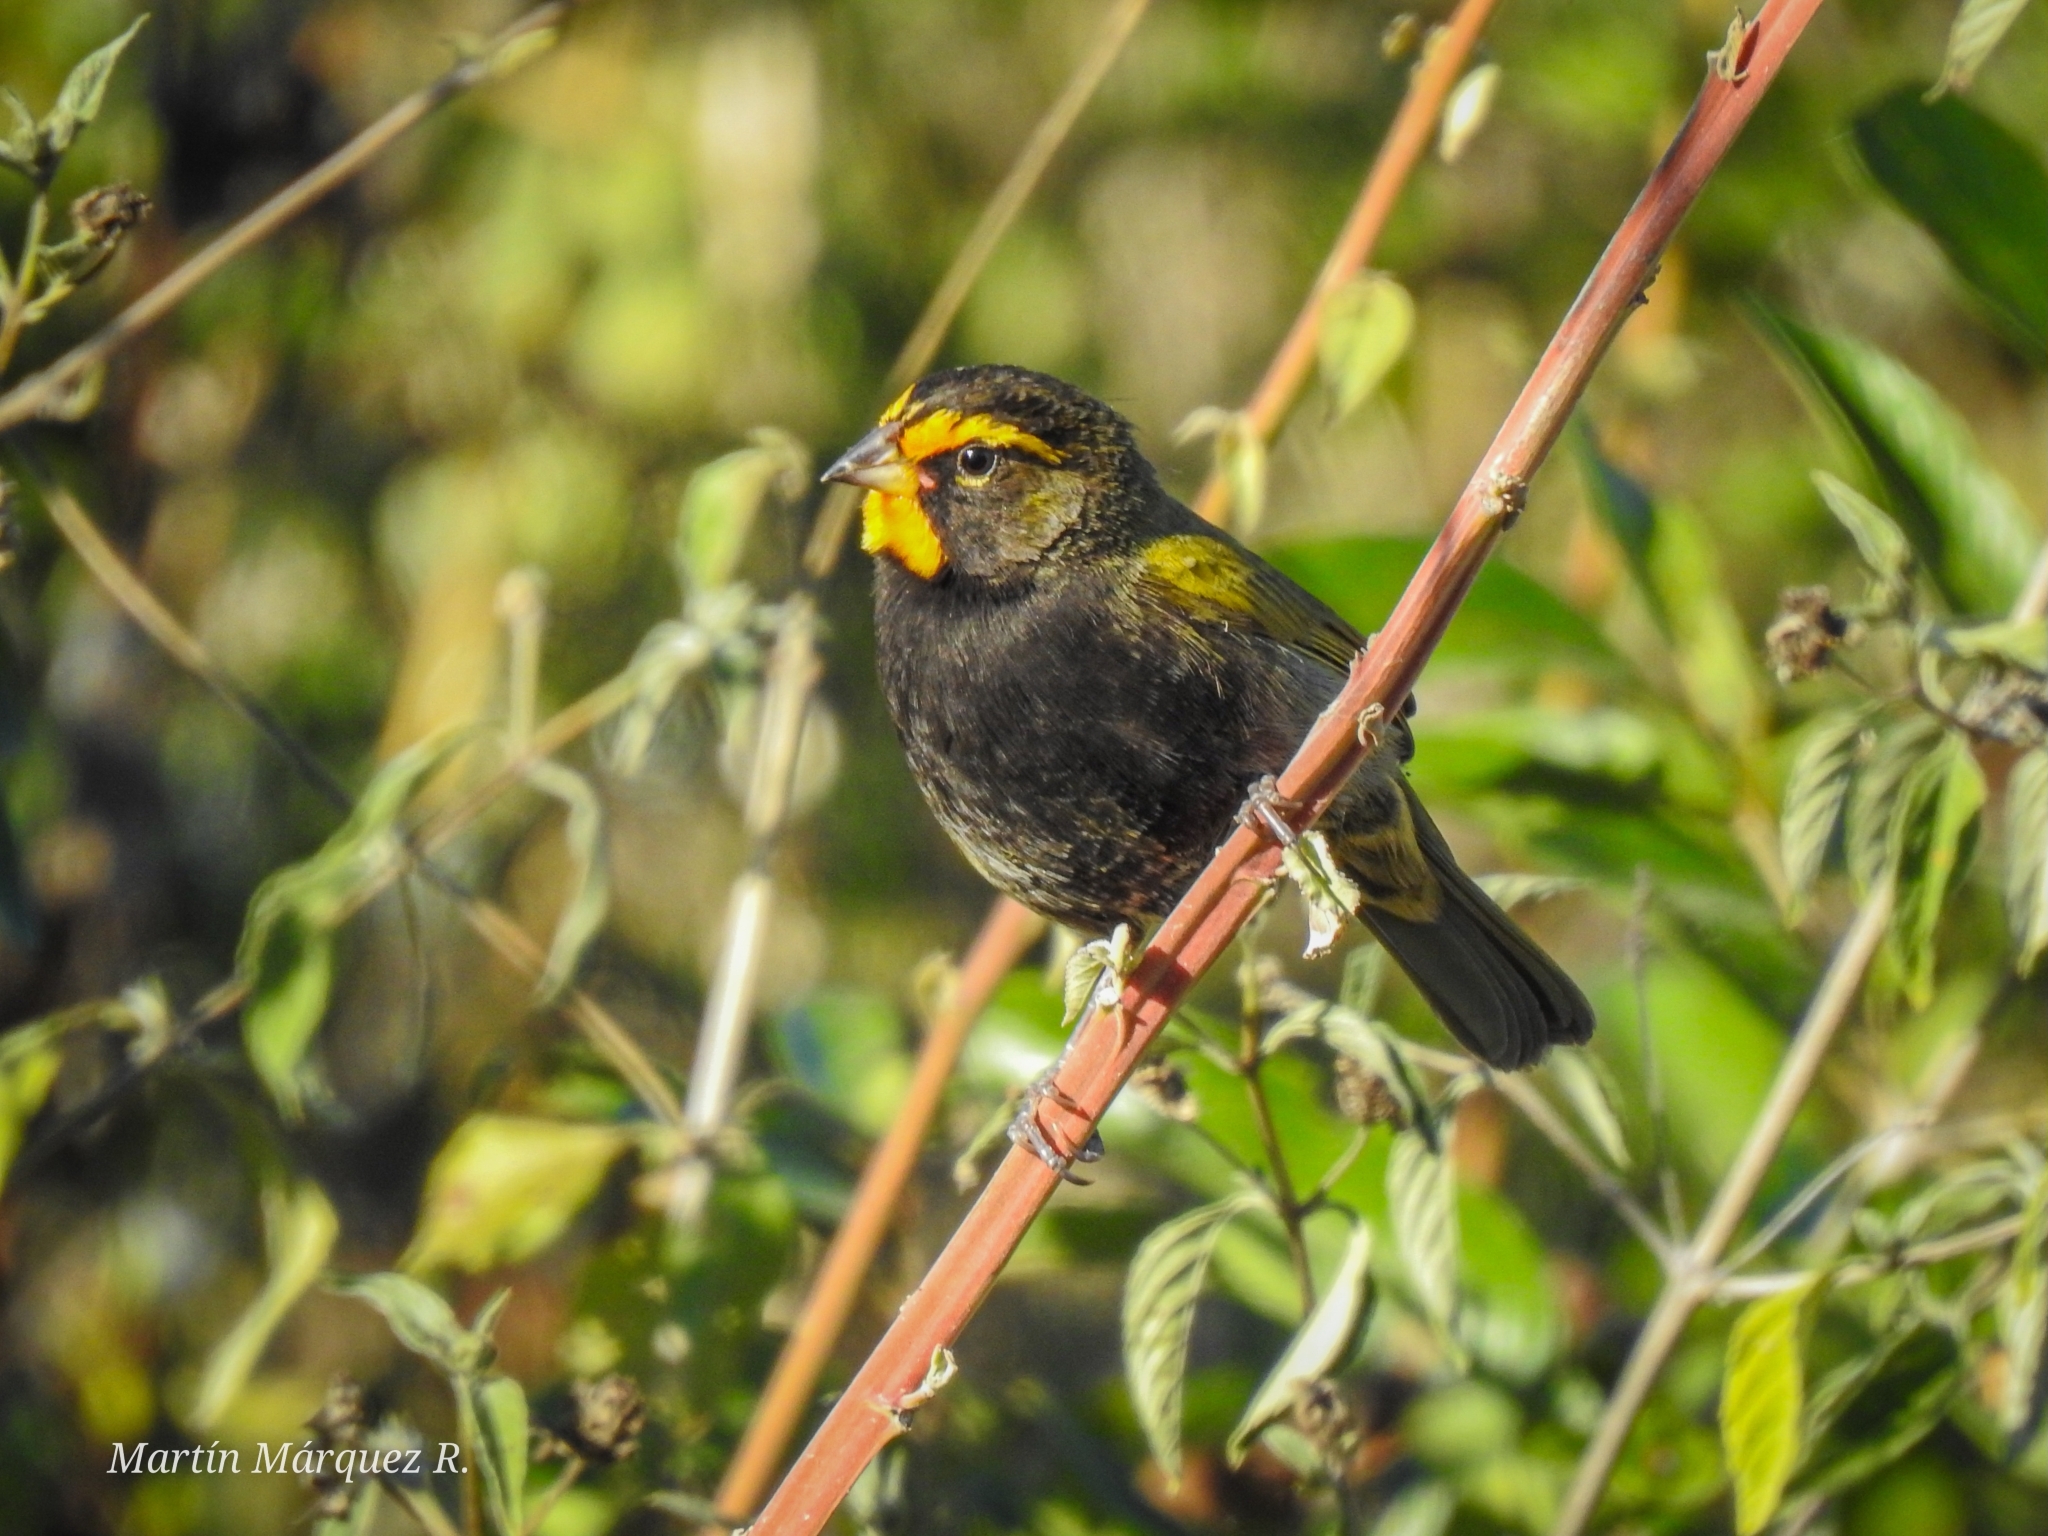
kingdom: Animalia
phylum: Chordata
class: Aves
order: Passeriformes
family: Thraupidae
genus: Tiaris
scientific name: Tiaris olivaceus
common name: Yellow-faced grassquit
